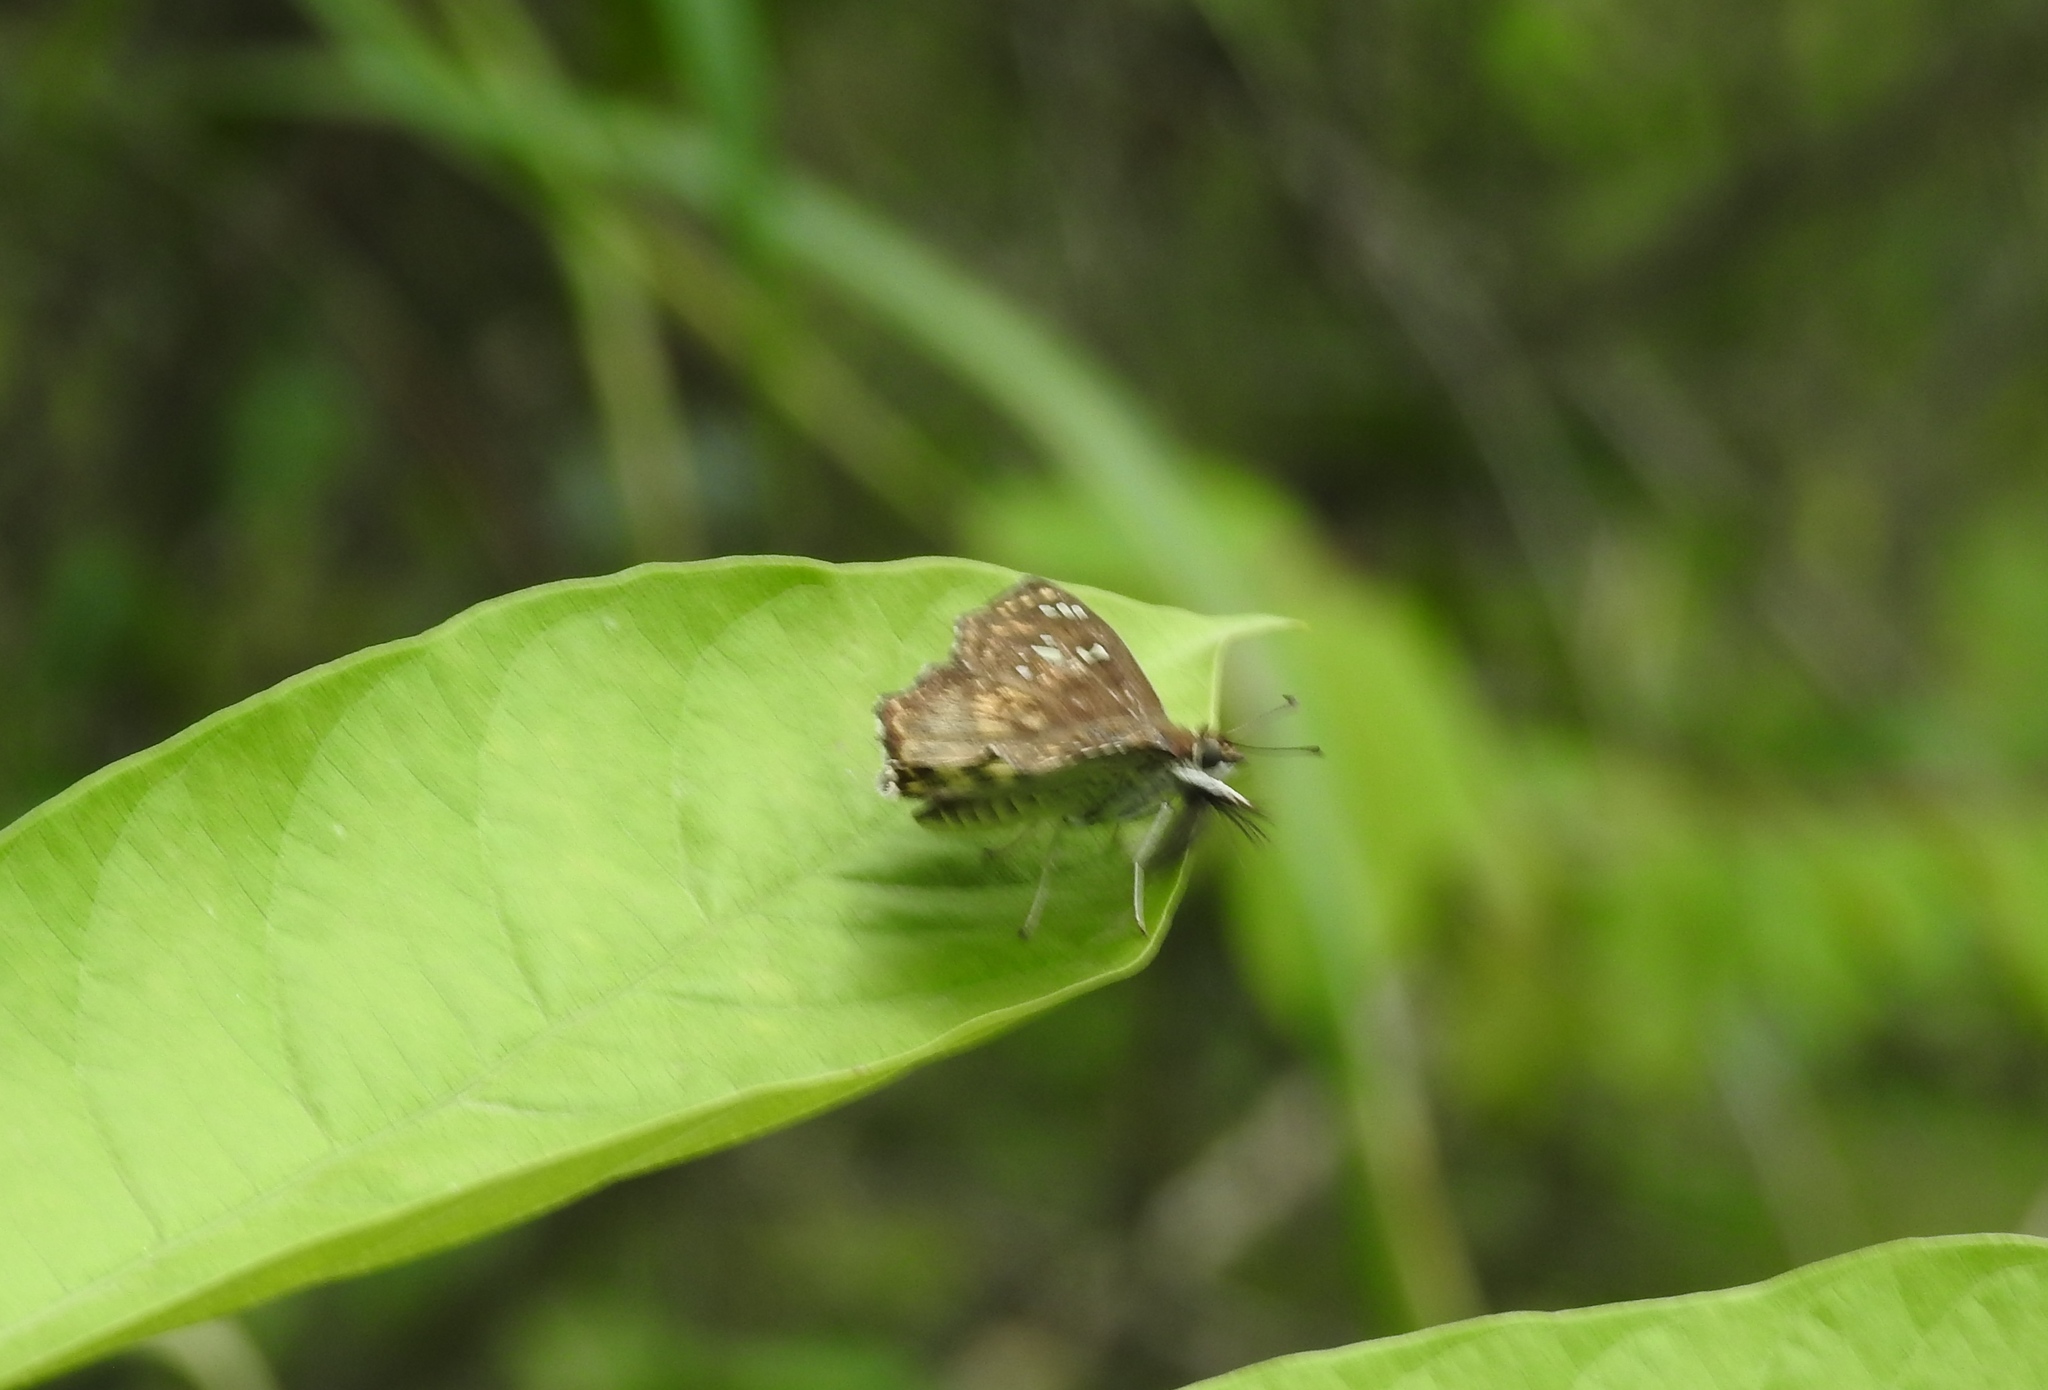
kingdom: Animalia
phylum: Arthropoda
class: Insecta
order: Lepidoptera
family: Hesperiidae
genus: Caprona
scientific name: Caprona ransonnettii
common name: Golden angle
